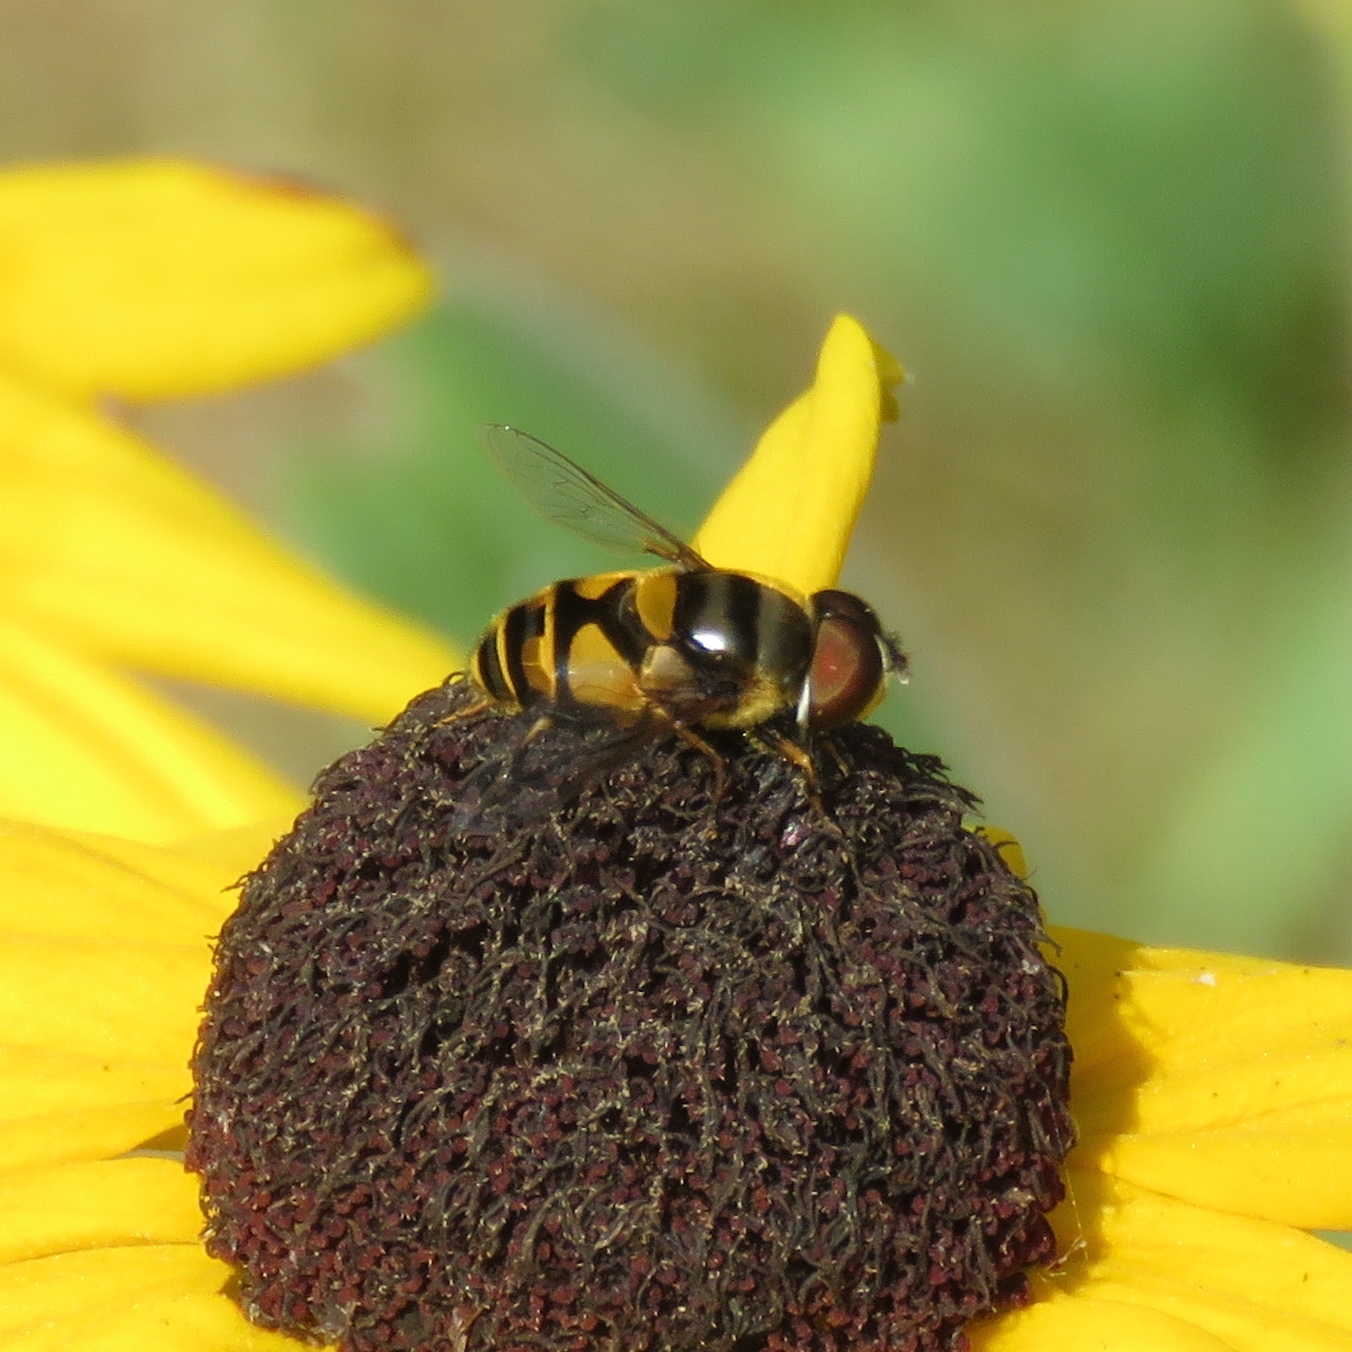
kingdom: Animalia
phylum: Arthropoda
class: Insecta
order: Diptera
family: Syrphidae
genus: Eristalis
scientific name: Eristalis transversa
